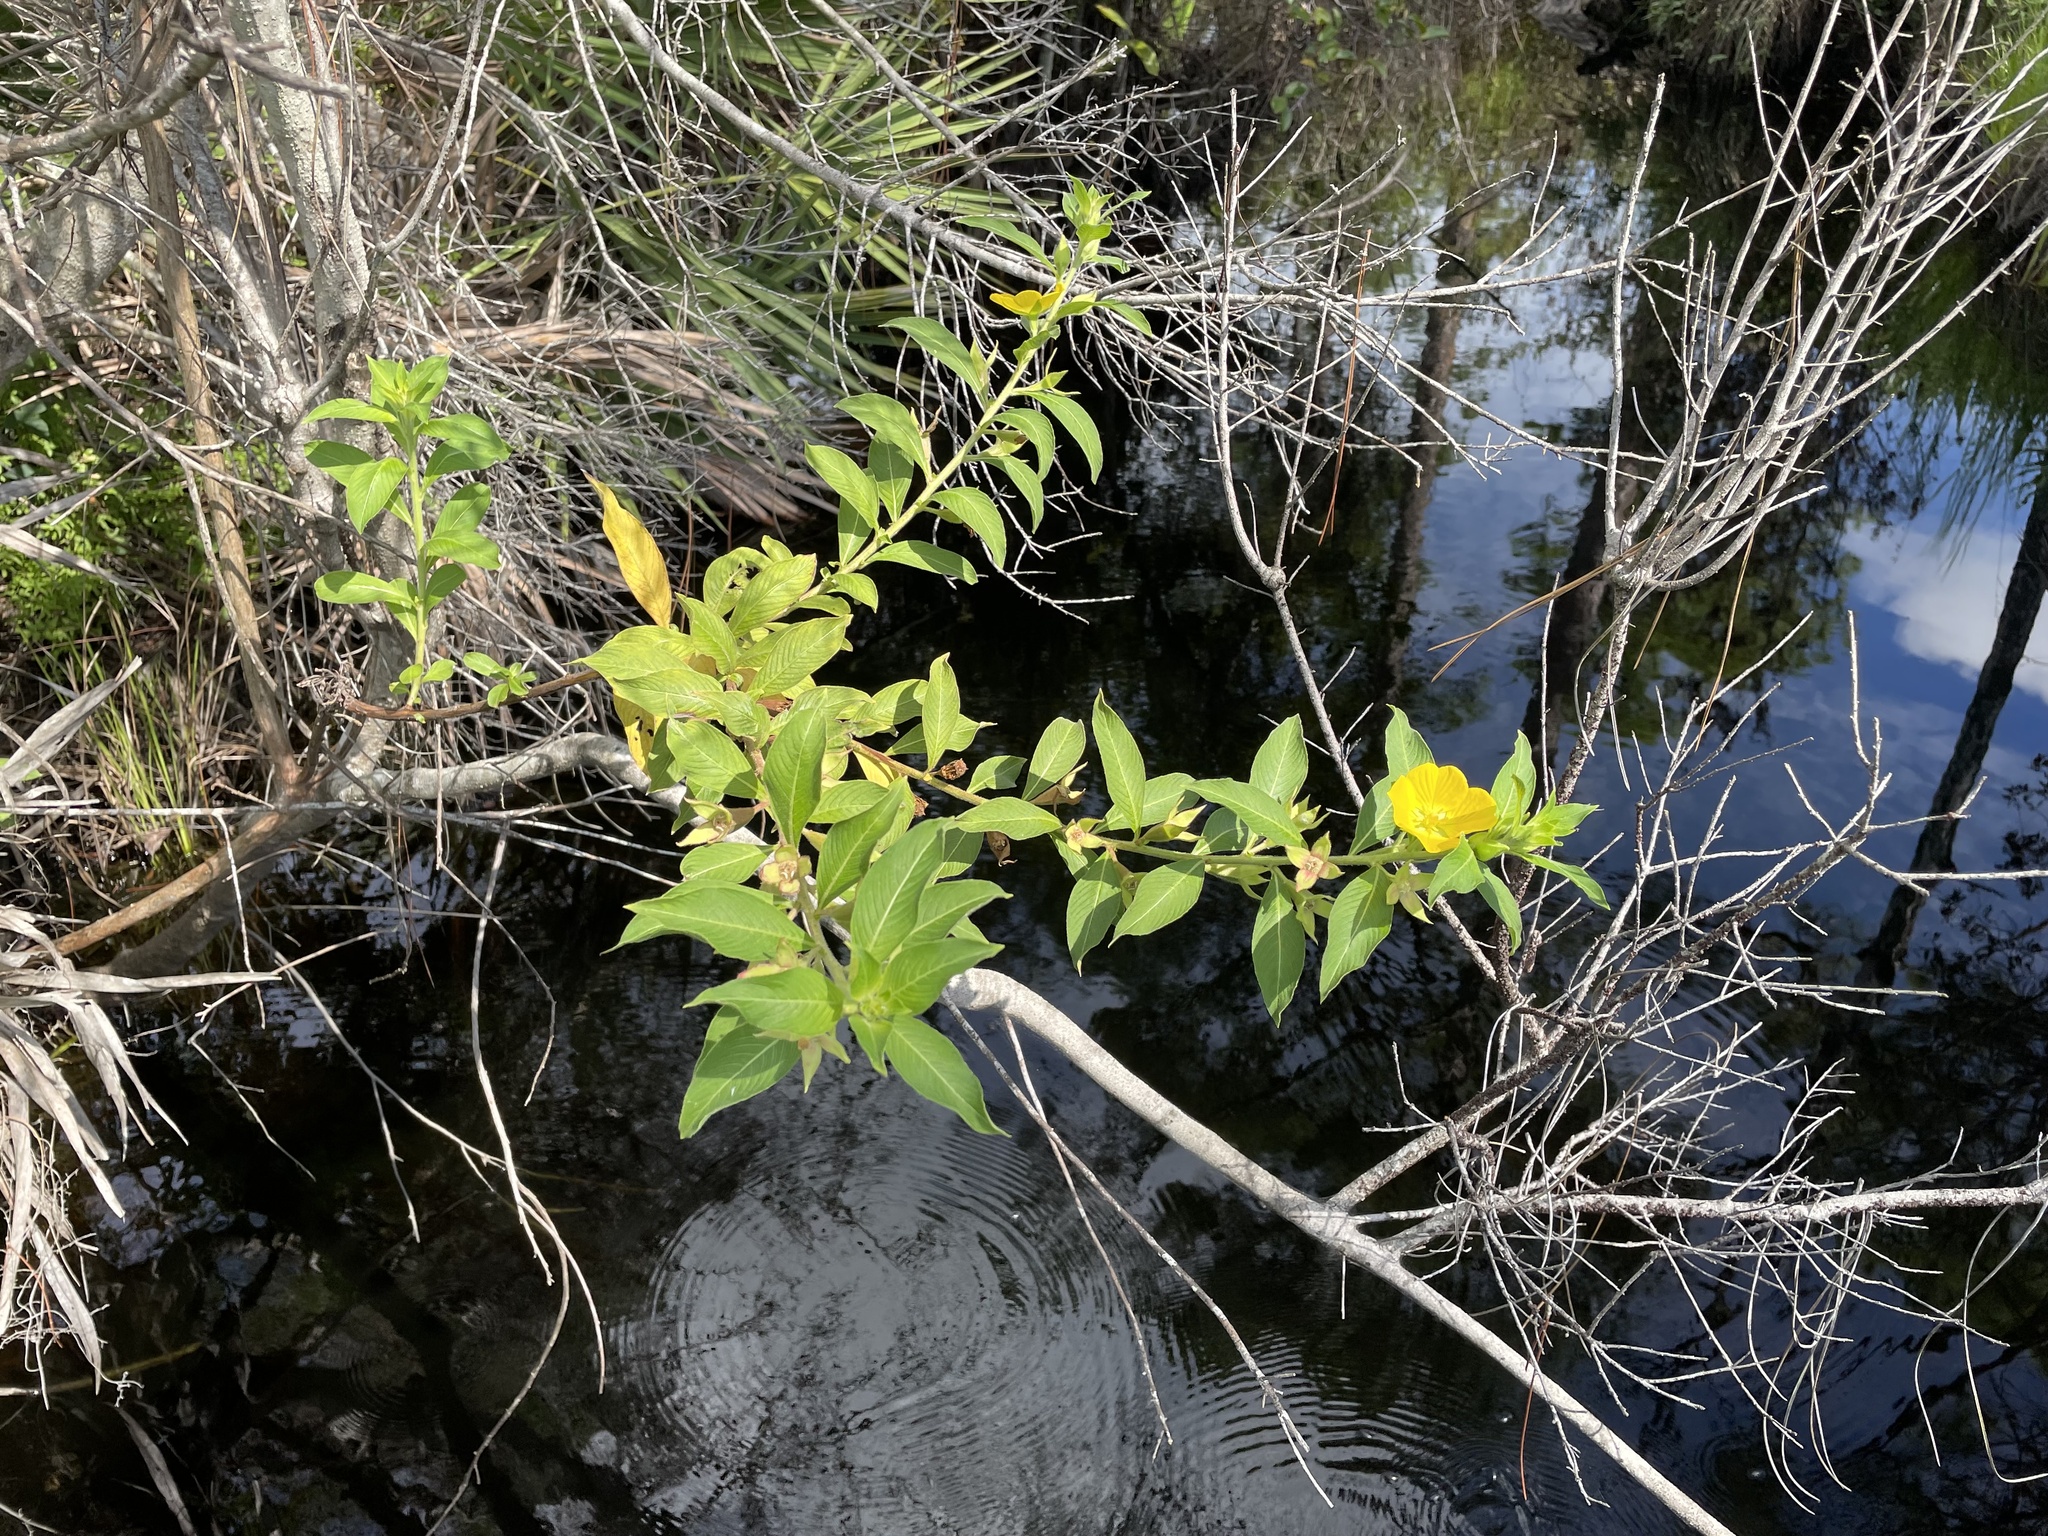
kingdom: Plantae
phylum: Tracheophyta
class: Magnoliopsida
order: Myrtales
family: Onagraceae
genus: Ludwigia
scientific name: Ludwigia peruviana
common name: Peruvian primrose-willow
